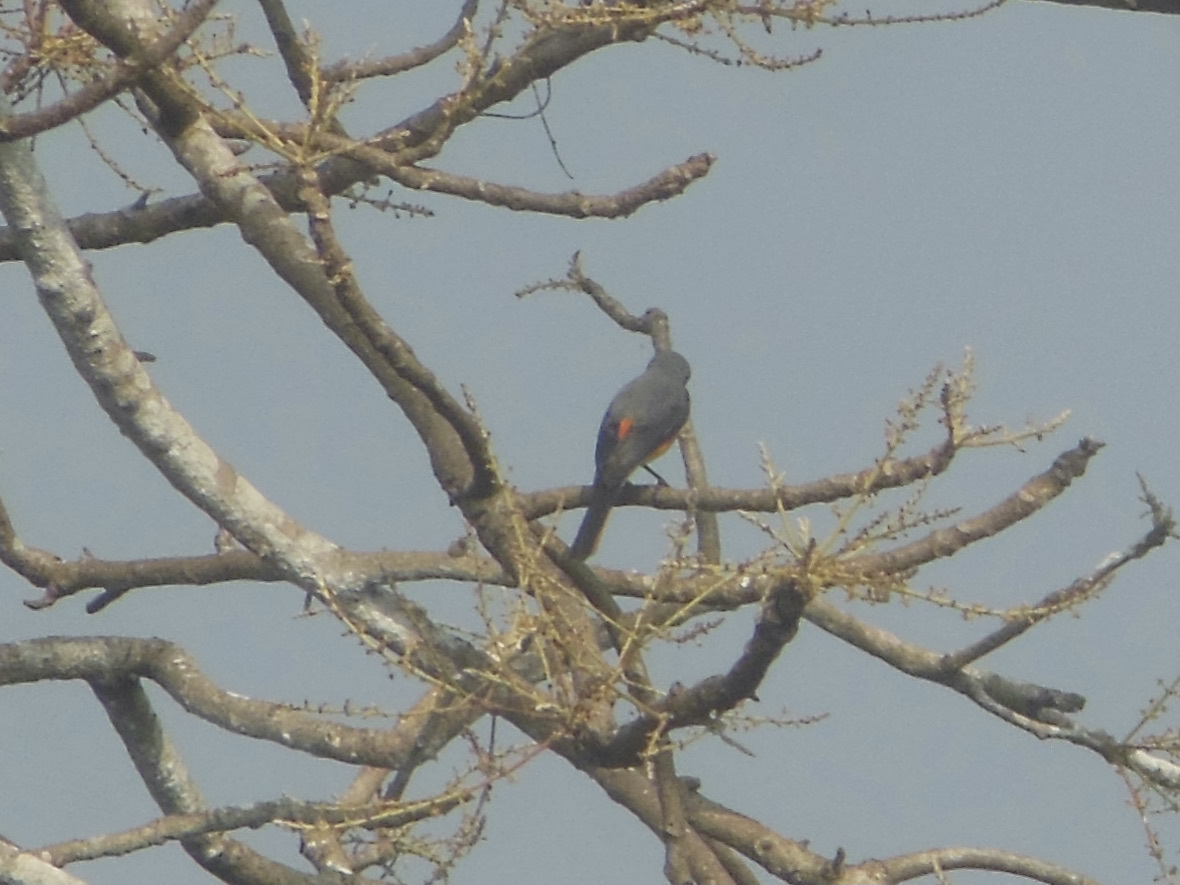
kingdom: Animalia
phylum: Chordata
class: Aves
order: Passeriformes
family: Campephagidae
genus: Pericrocotus
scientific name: Pericrocotus cinnamomeus
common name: Small minivet
